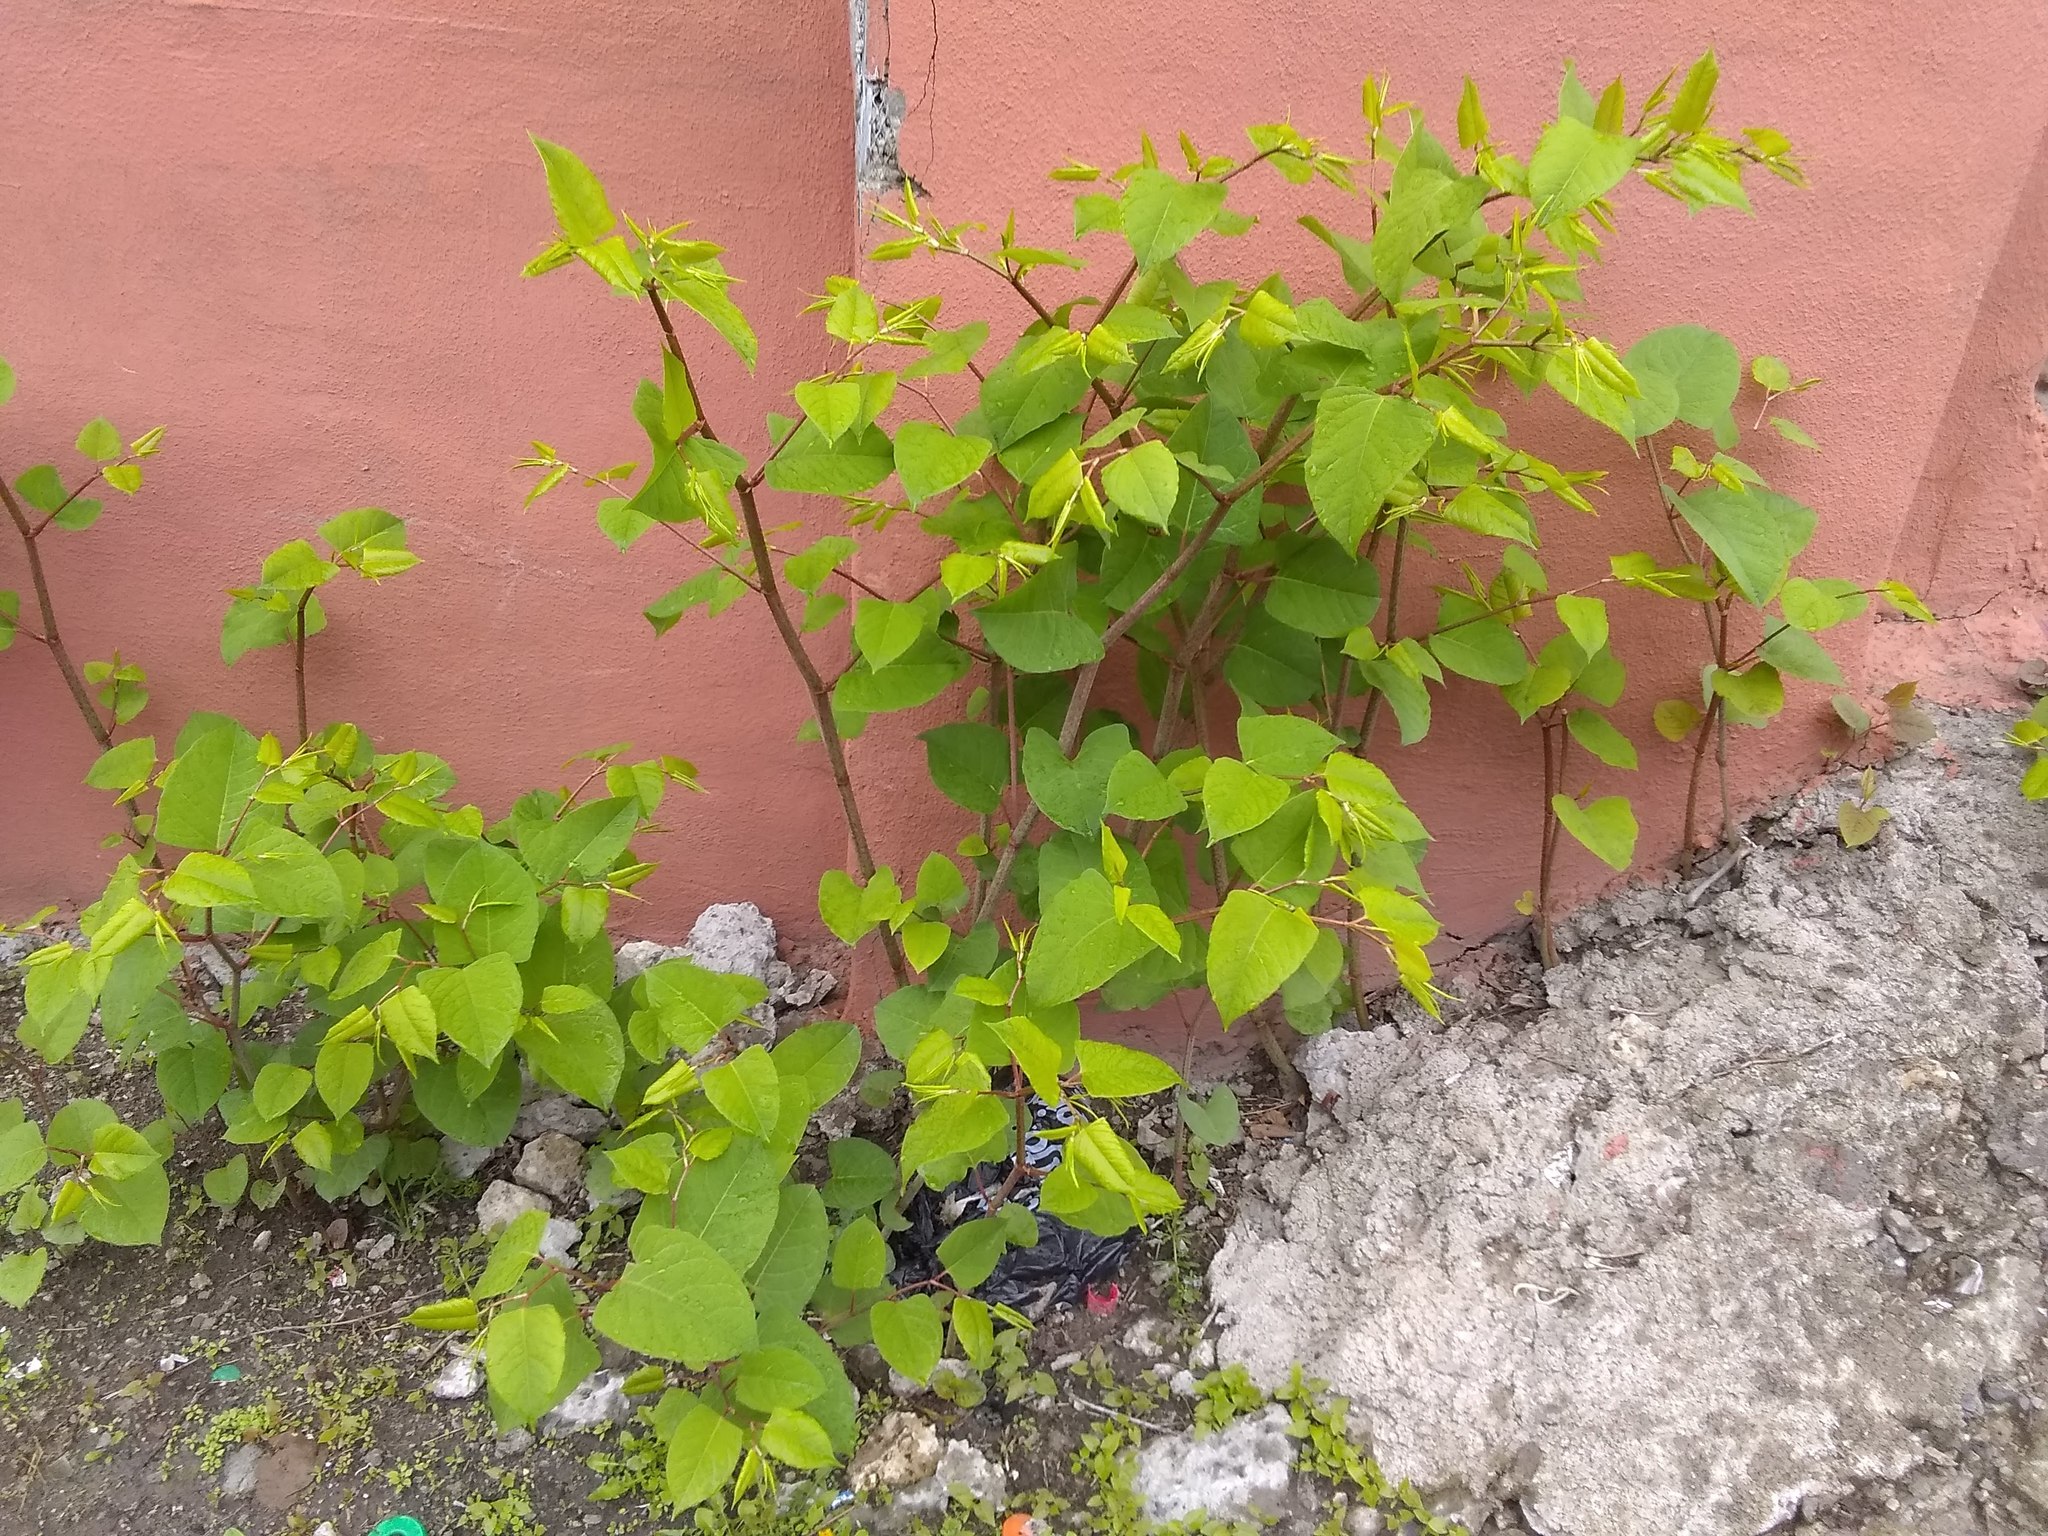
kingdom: Plantae
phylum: Tracheophyta
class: Magnoliopsida
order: Caryophyllales
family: Polygonaceae
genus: Reynoutria
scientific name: Reynoutria japonica
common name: Japanese knotweed
